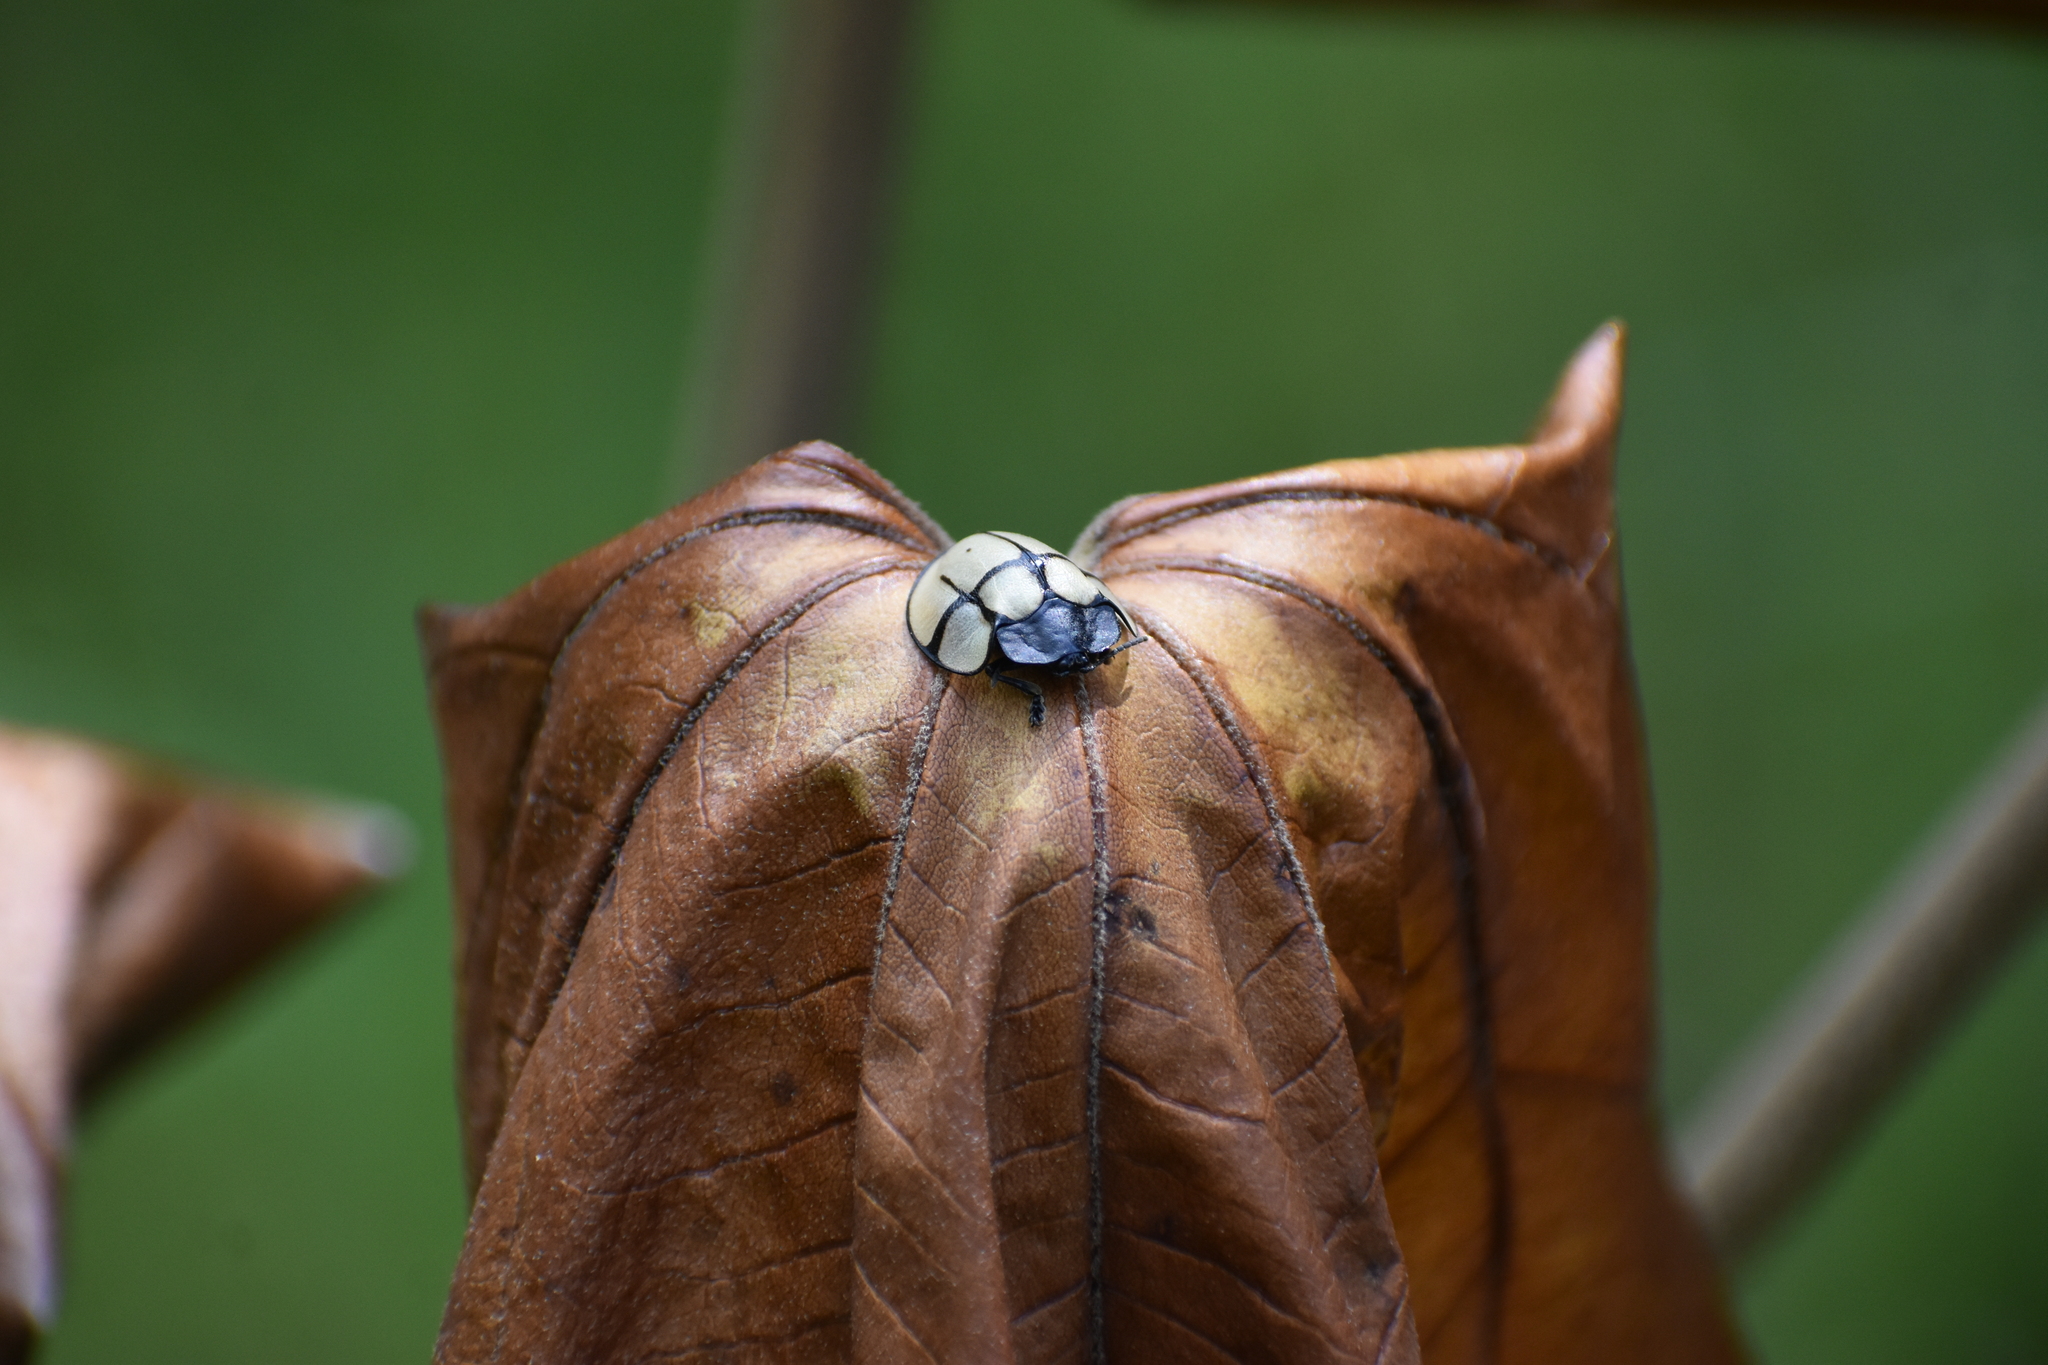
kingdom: Animalia
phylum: Arthropoda
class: Insecta
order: Coleoptera
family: Chrysomelidae
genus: Cyrtonota
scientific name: Cyrtonota dissecta
